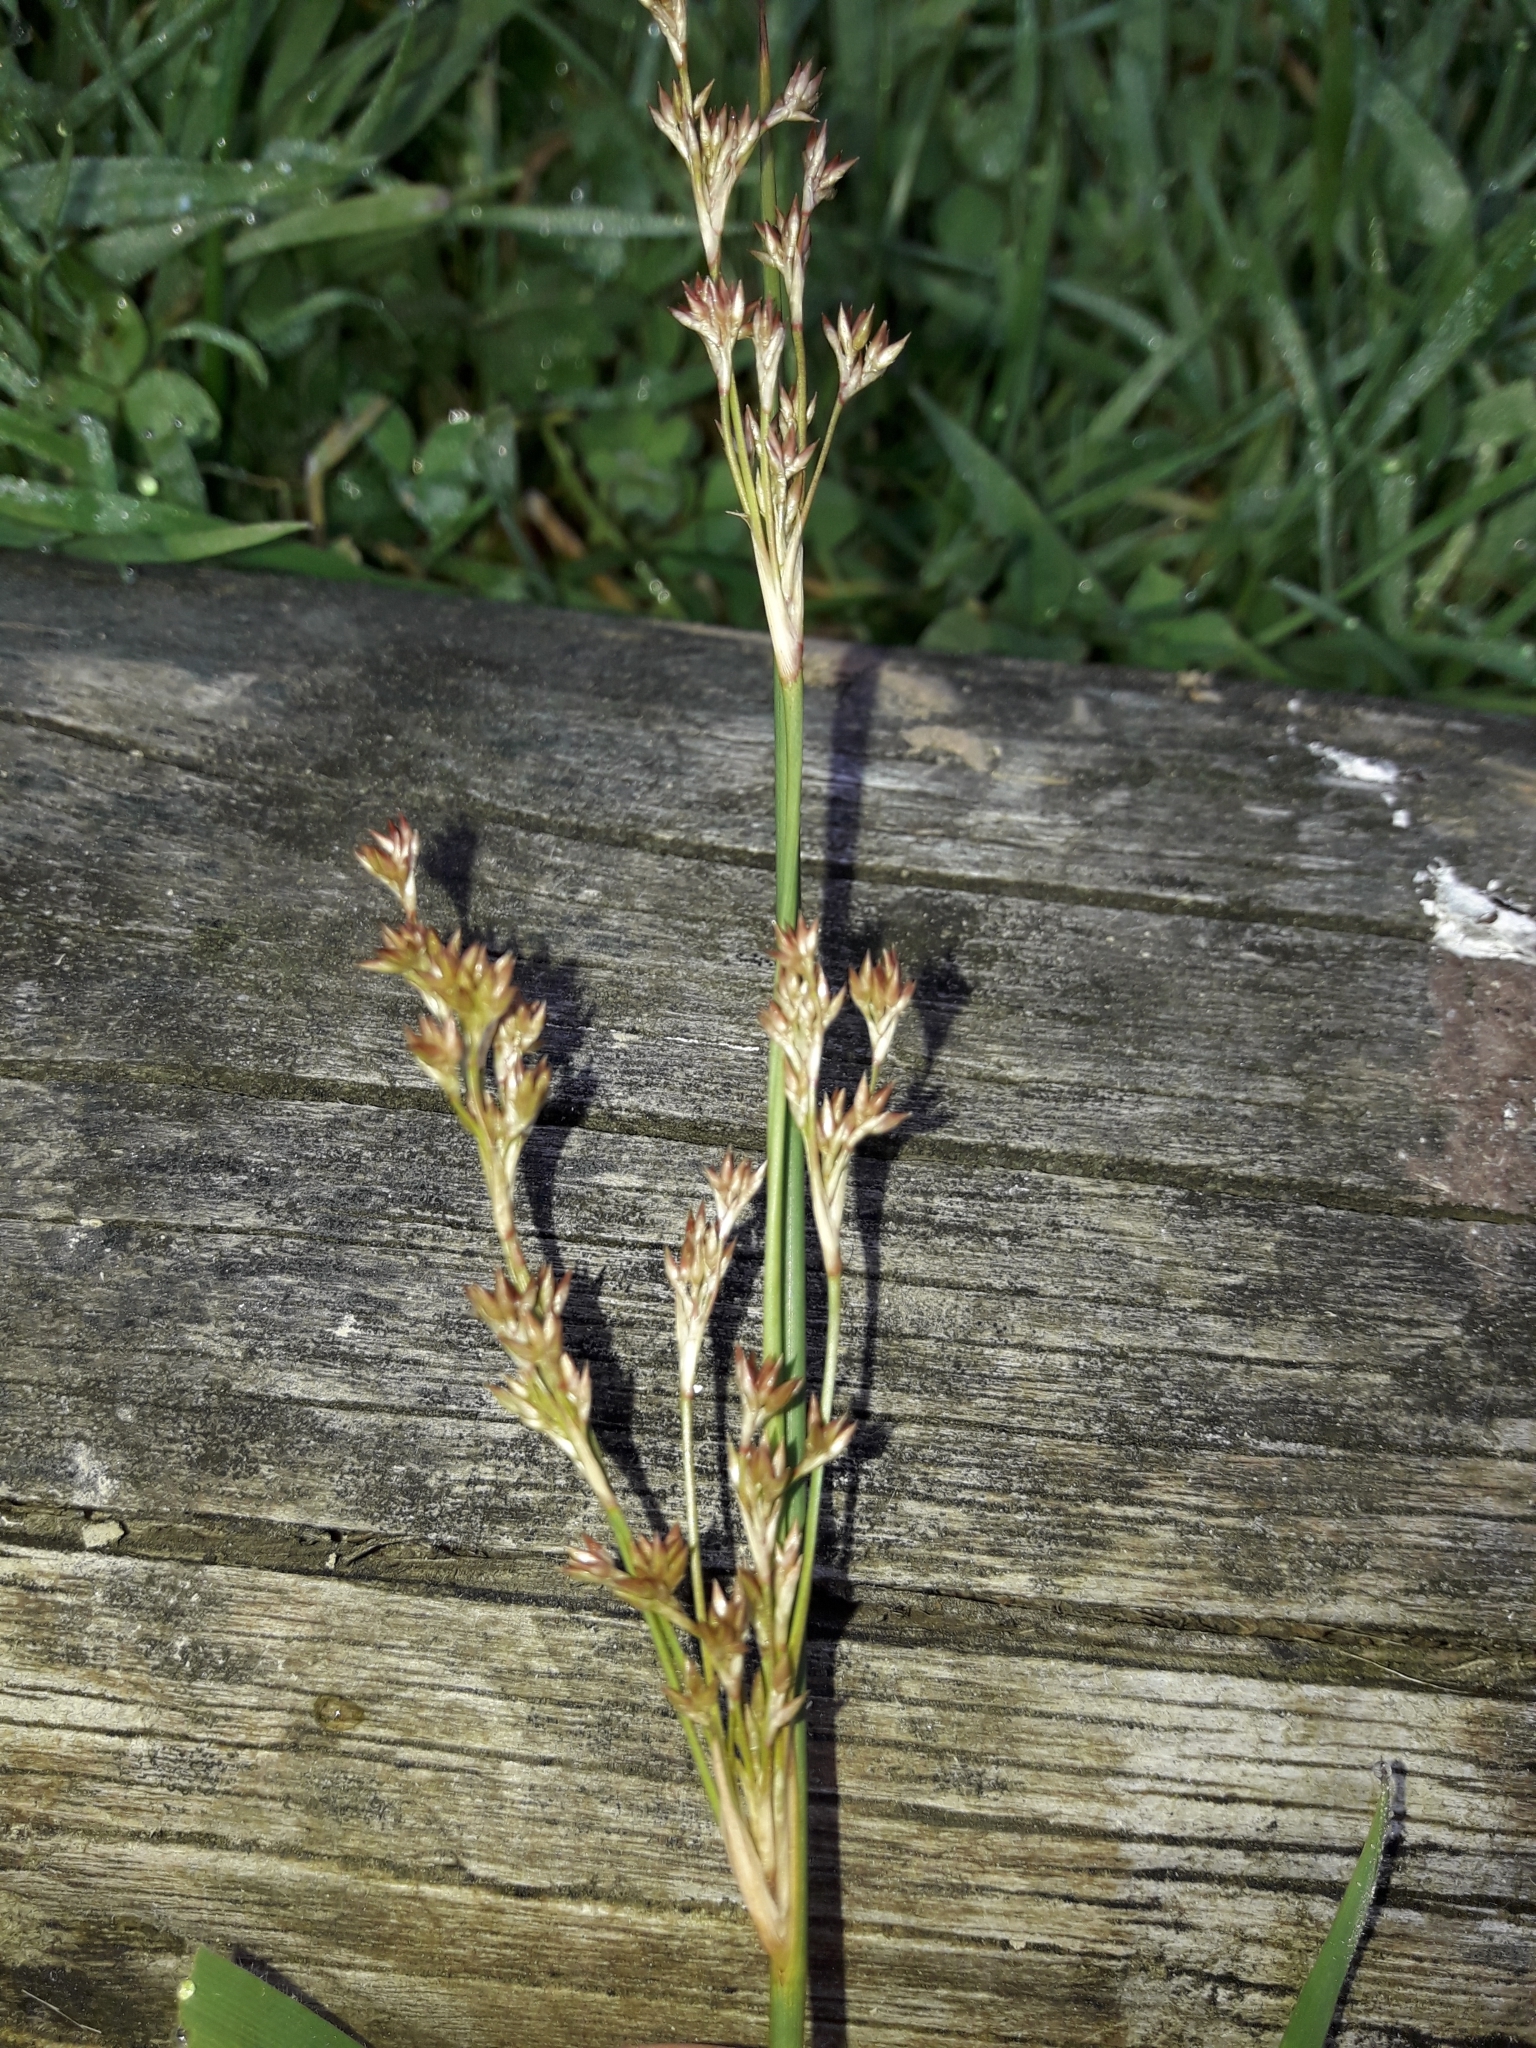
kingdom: Plantae
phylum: Tracheophyta
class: Liliopsida
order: Poales
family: Juncaceae
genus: Juncus
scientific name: Juncus australis
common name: Austral rush
